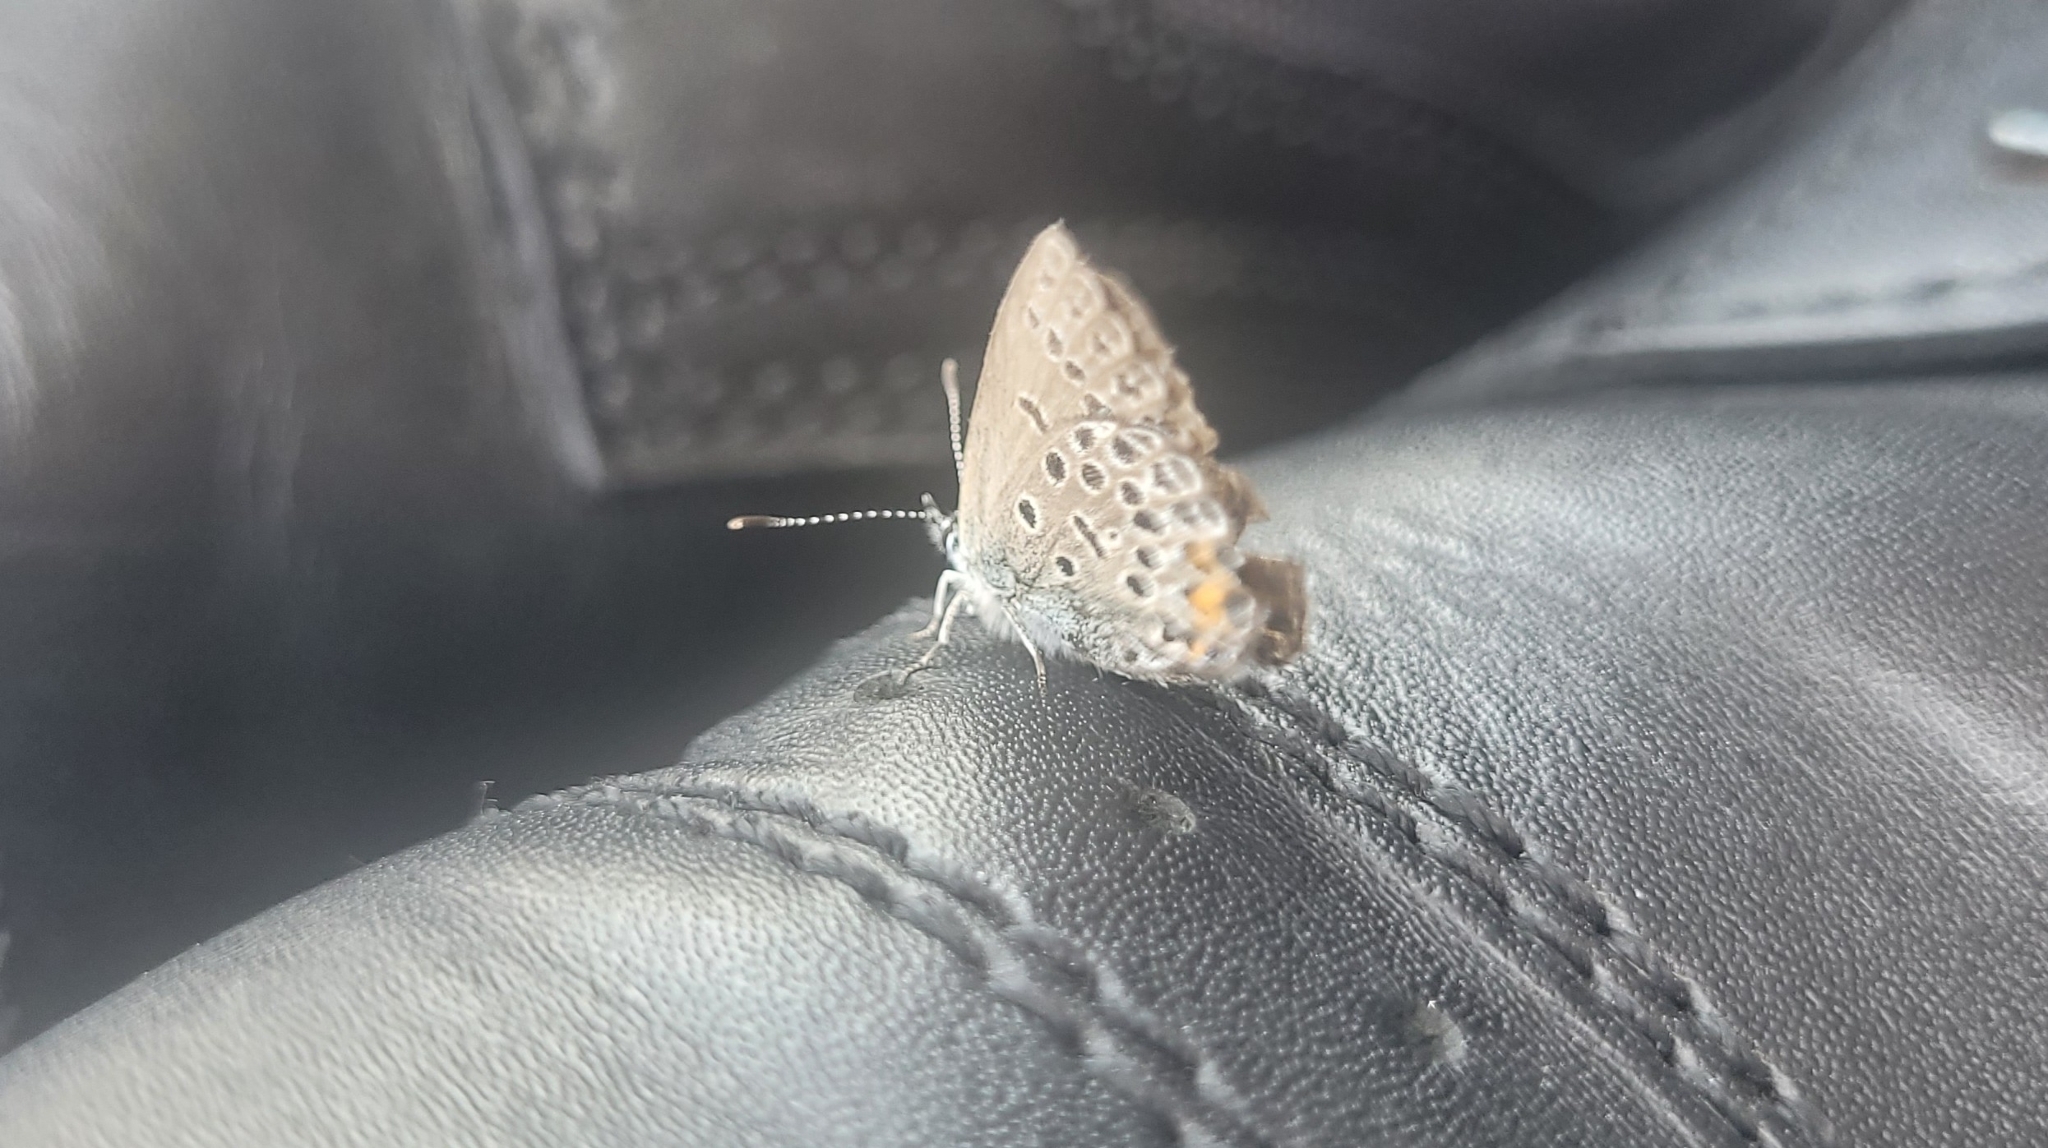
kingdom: Animalia
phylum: Arthropoda
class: Insecta
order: Lepidoptera
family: Lycaenidae
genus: Vacciniina
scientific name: Vacciniina optilete
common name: Cranberry blue
